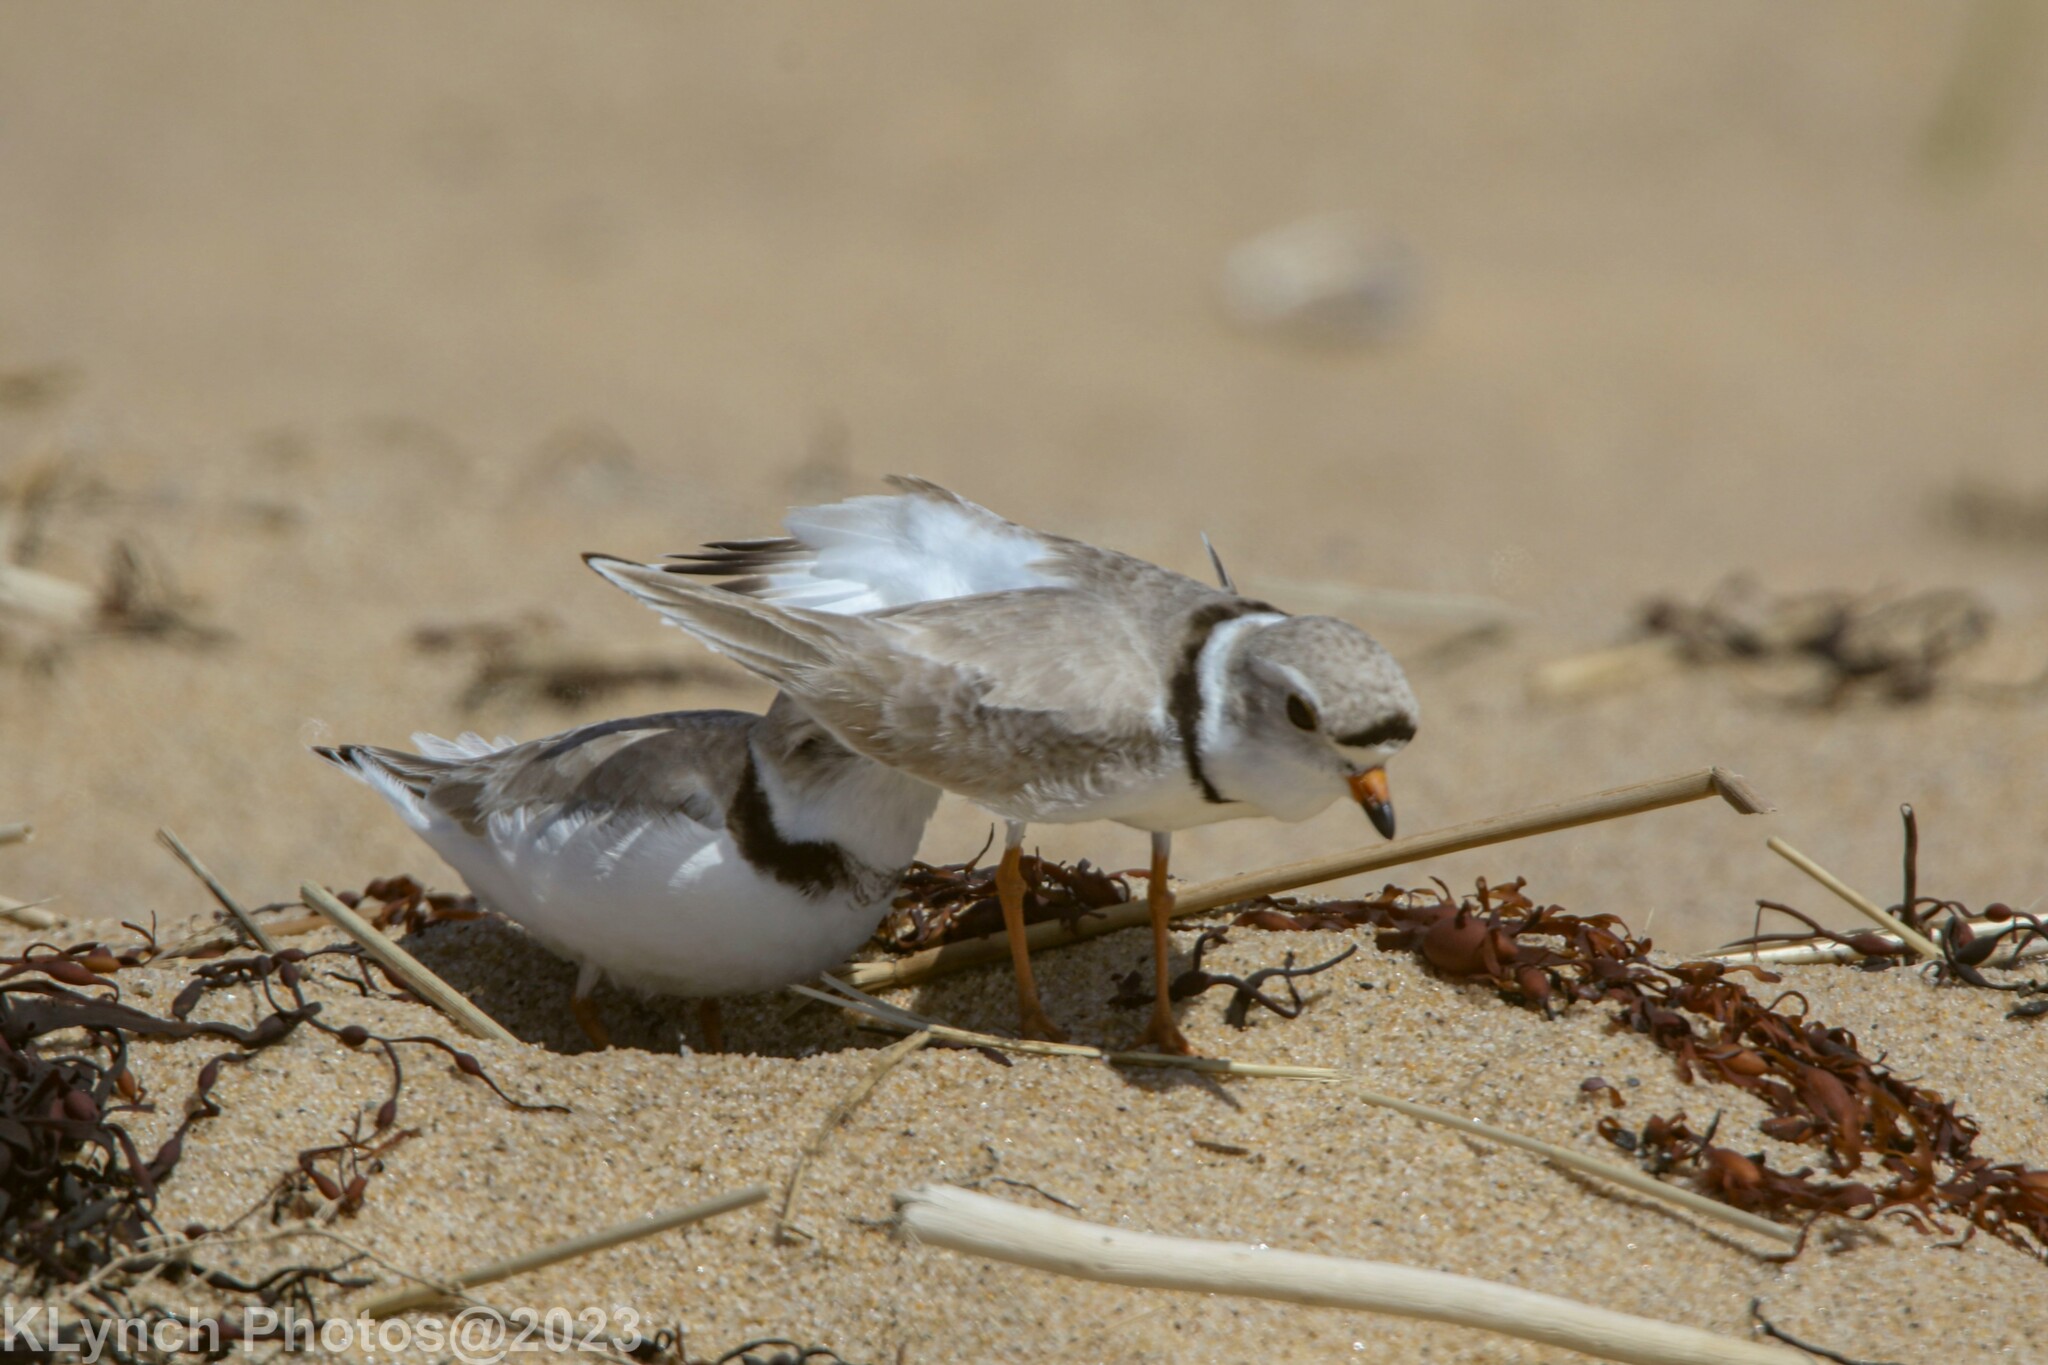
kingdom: Animalia
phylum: Chordata
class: Aves
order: Charadriiformes
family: Charadriidae
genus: Charadrius
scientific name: Charadrius melodus
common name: Piping plover
